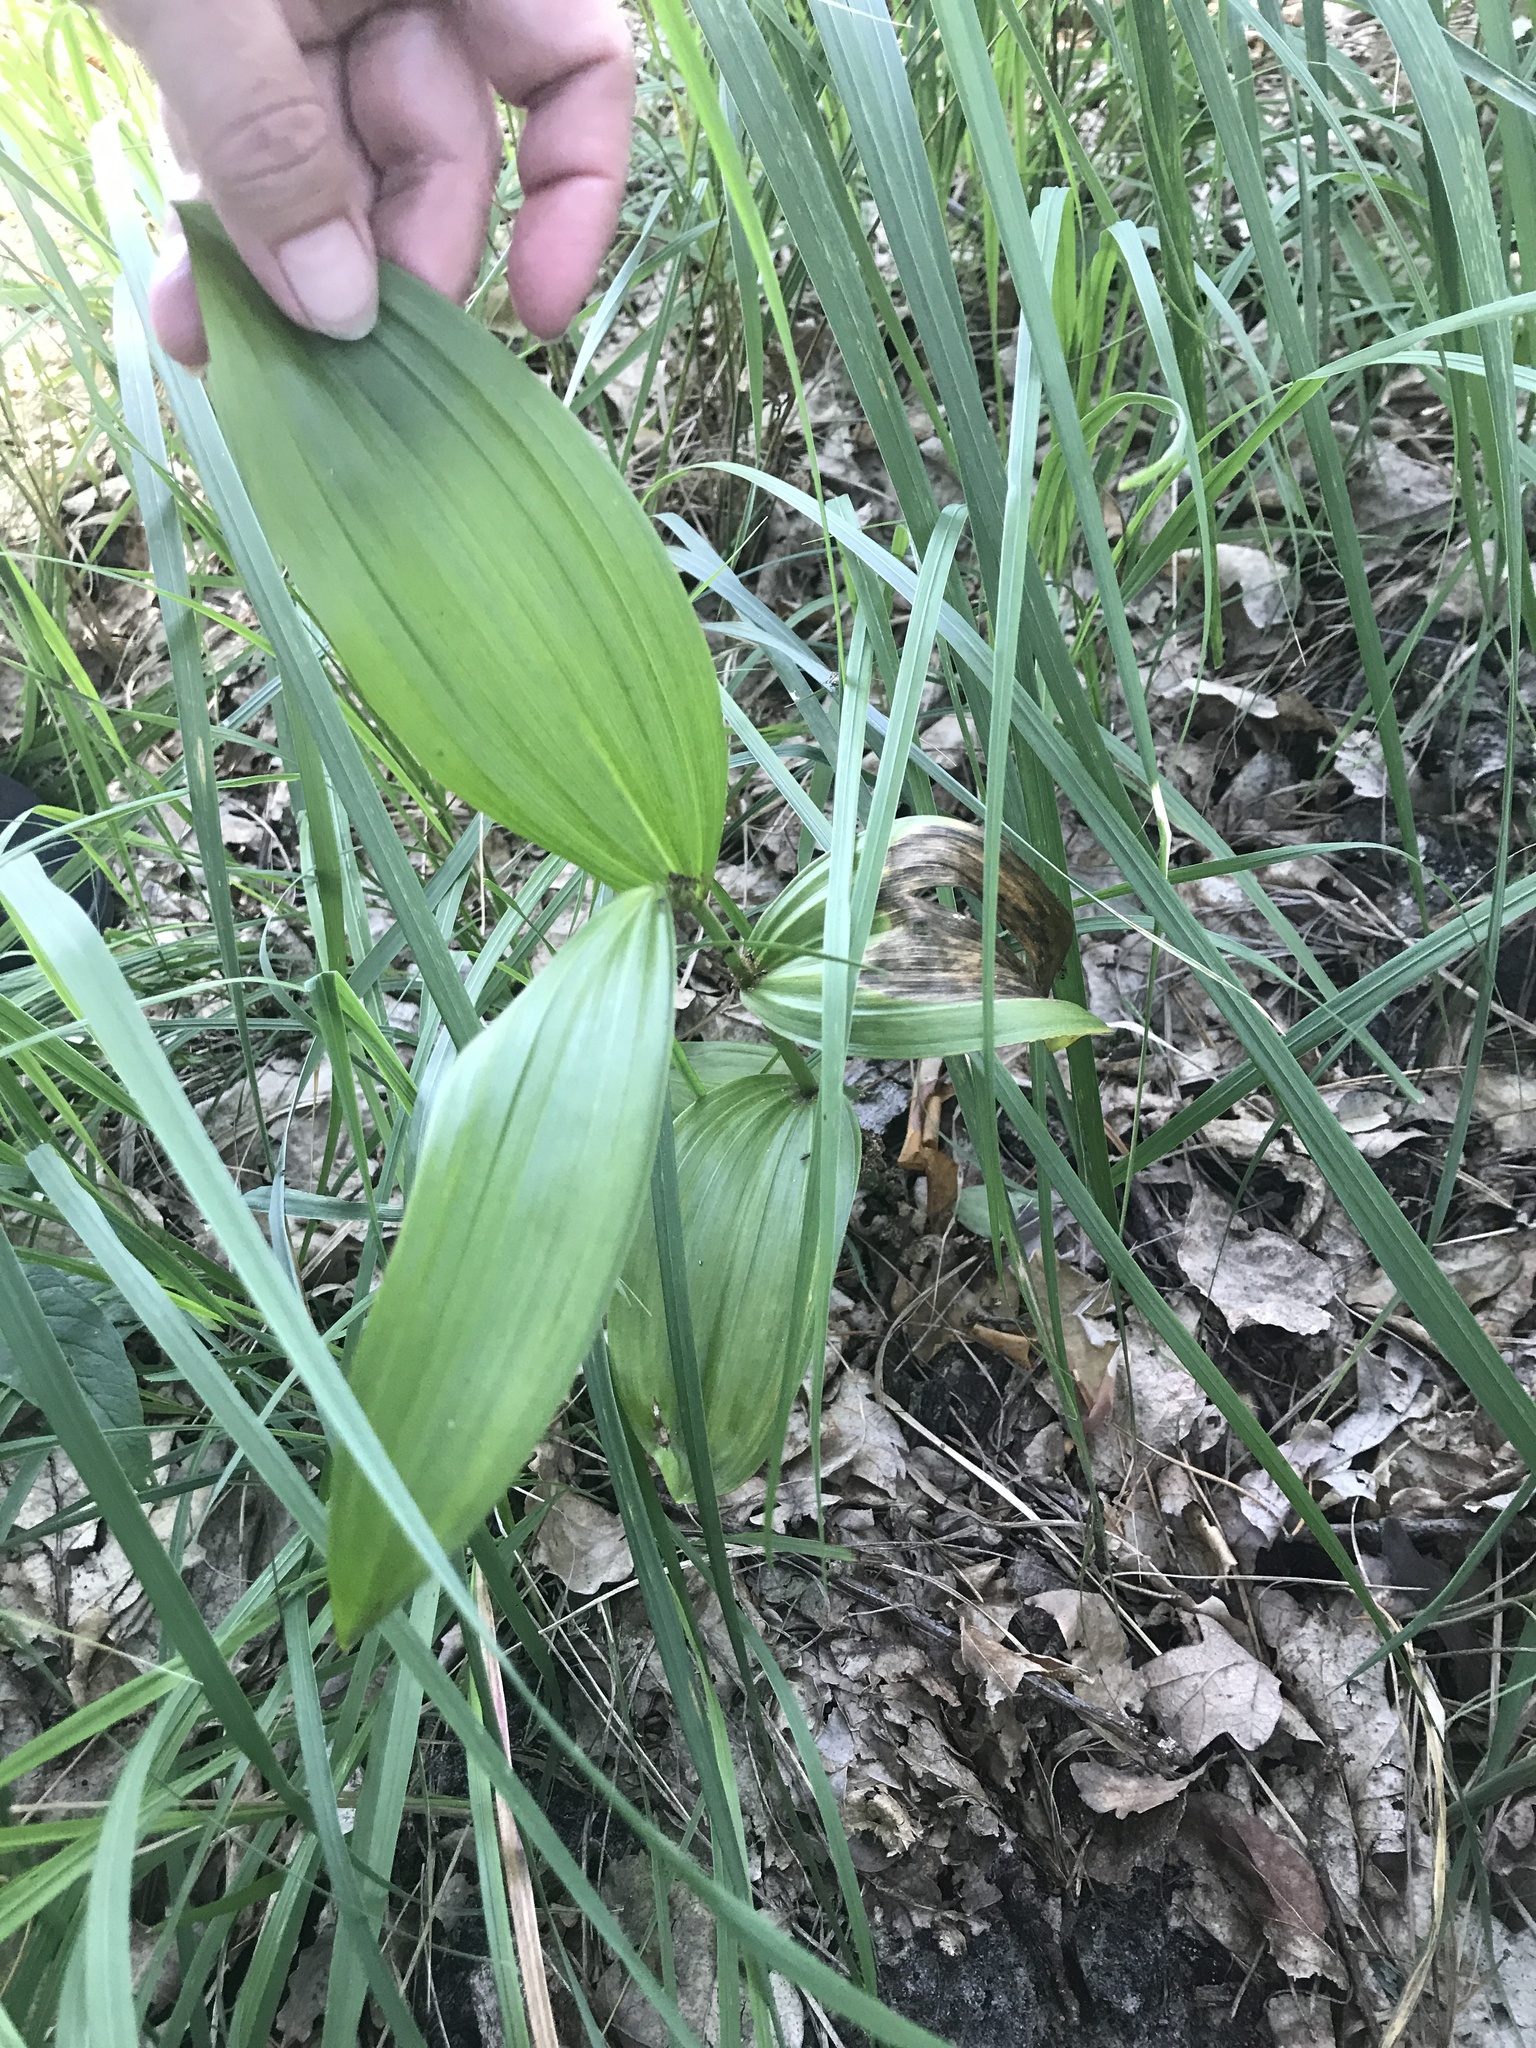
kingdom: Plantae
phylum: Tracheophyta
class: Liliopsida
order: Liliales
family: Melanthiaceae
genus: Veratrum
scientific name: Veratrum lobelianum
